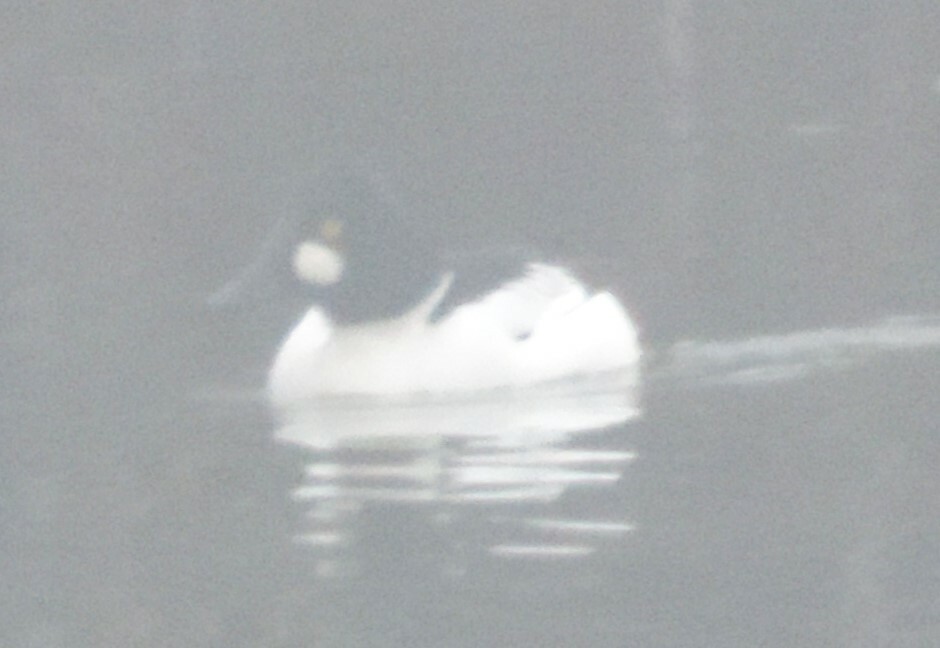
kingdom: Animalia
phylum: Chordata
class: Aves
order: Anseriformes
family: Anatidae
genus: Bucephala
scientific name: Bucephala clangula
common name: Common goldeneye
